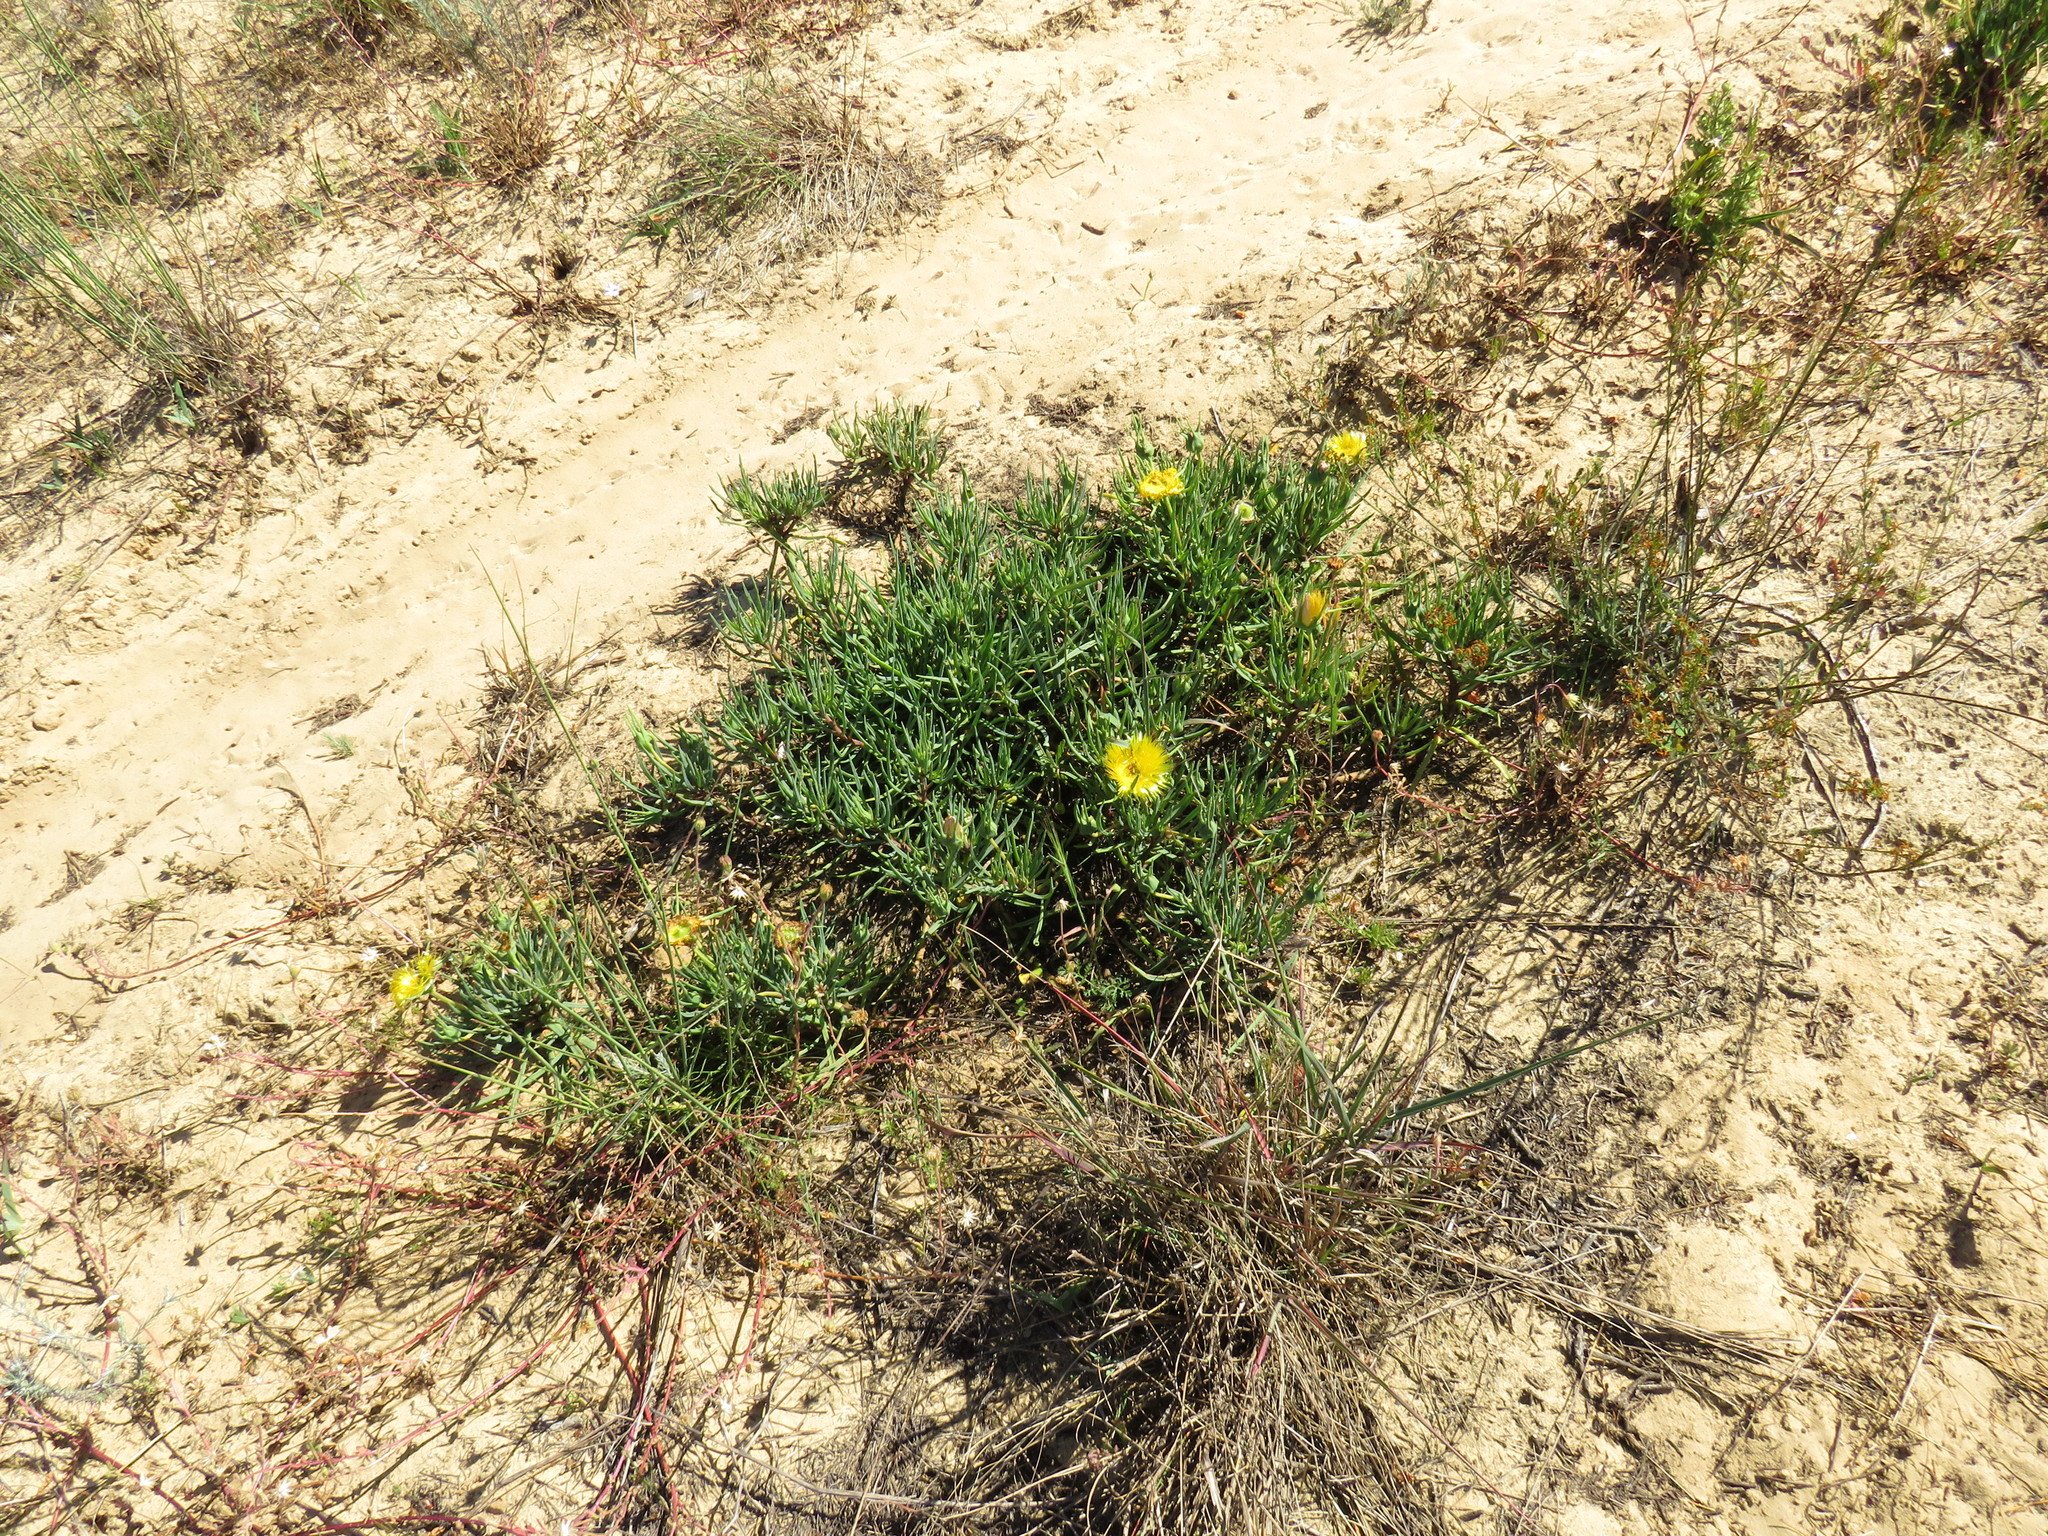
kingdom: Plantae
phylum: Tracheophyta
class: Magnoliopsida
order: Caryophyllales
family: Aizoaceae
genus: Conicosia
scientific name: Conicosia pugioniformis
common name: Narrow-leaved iceplant
